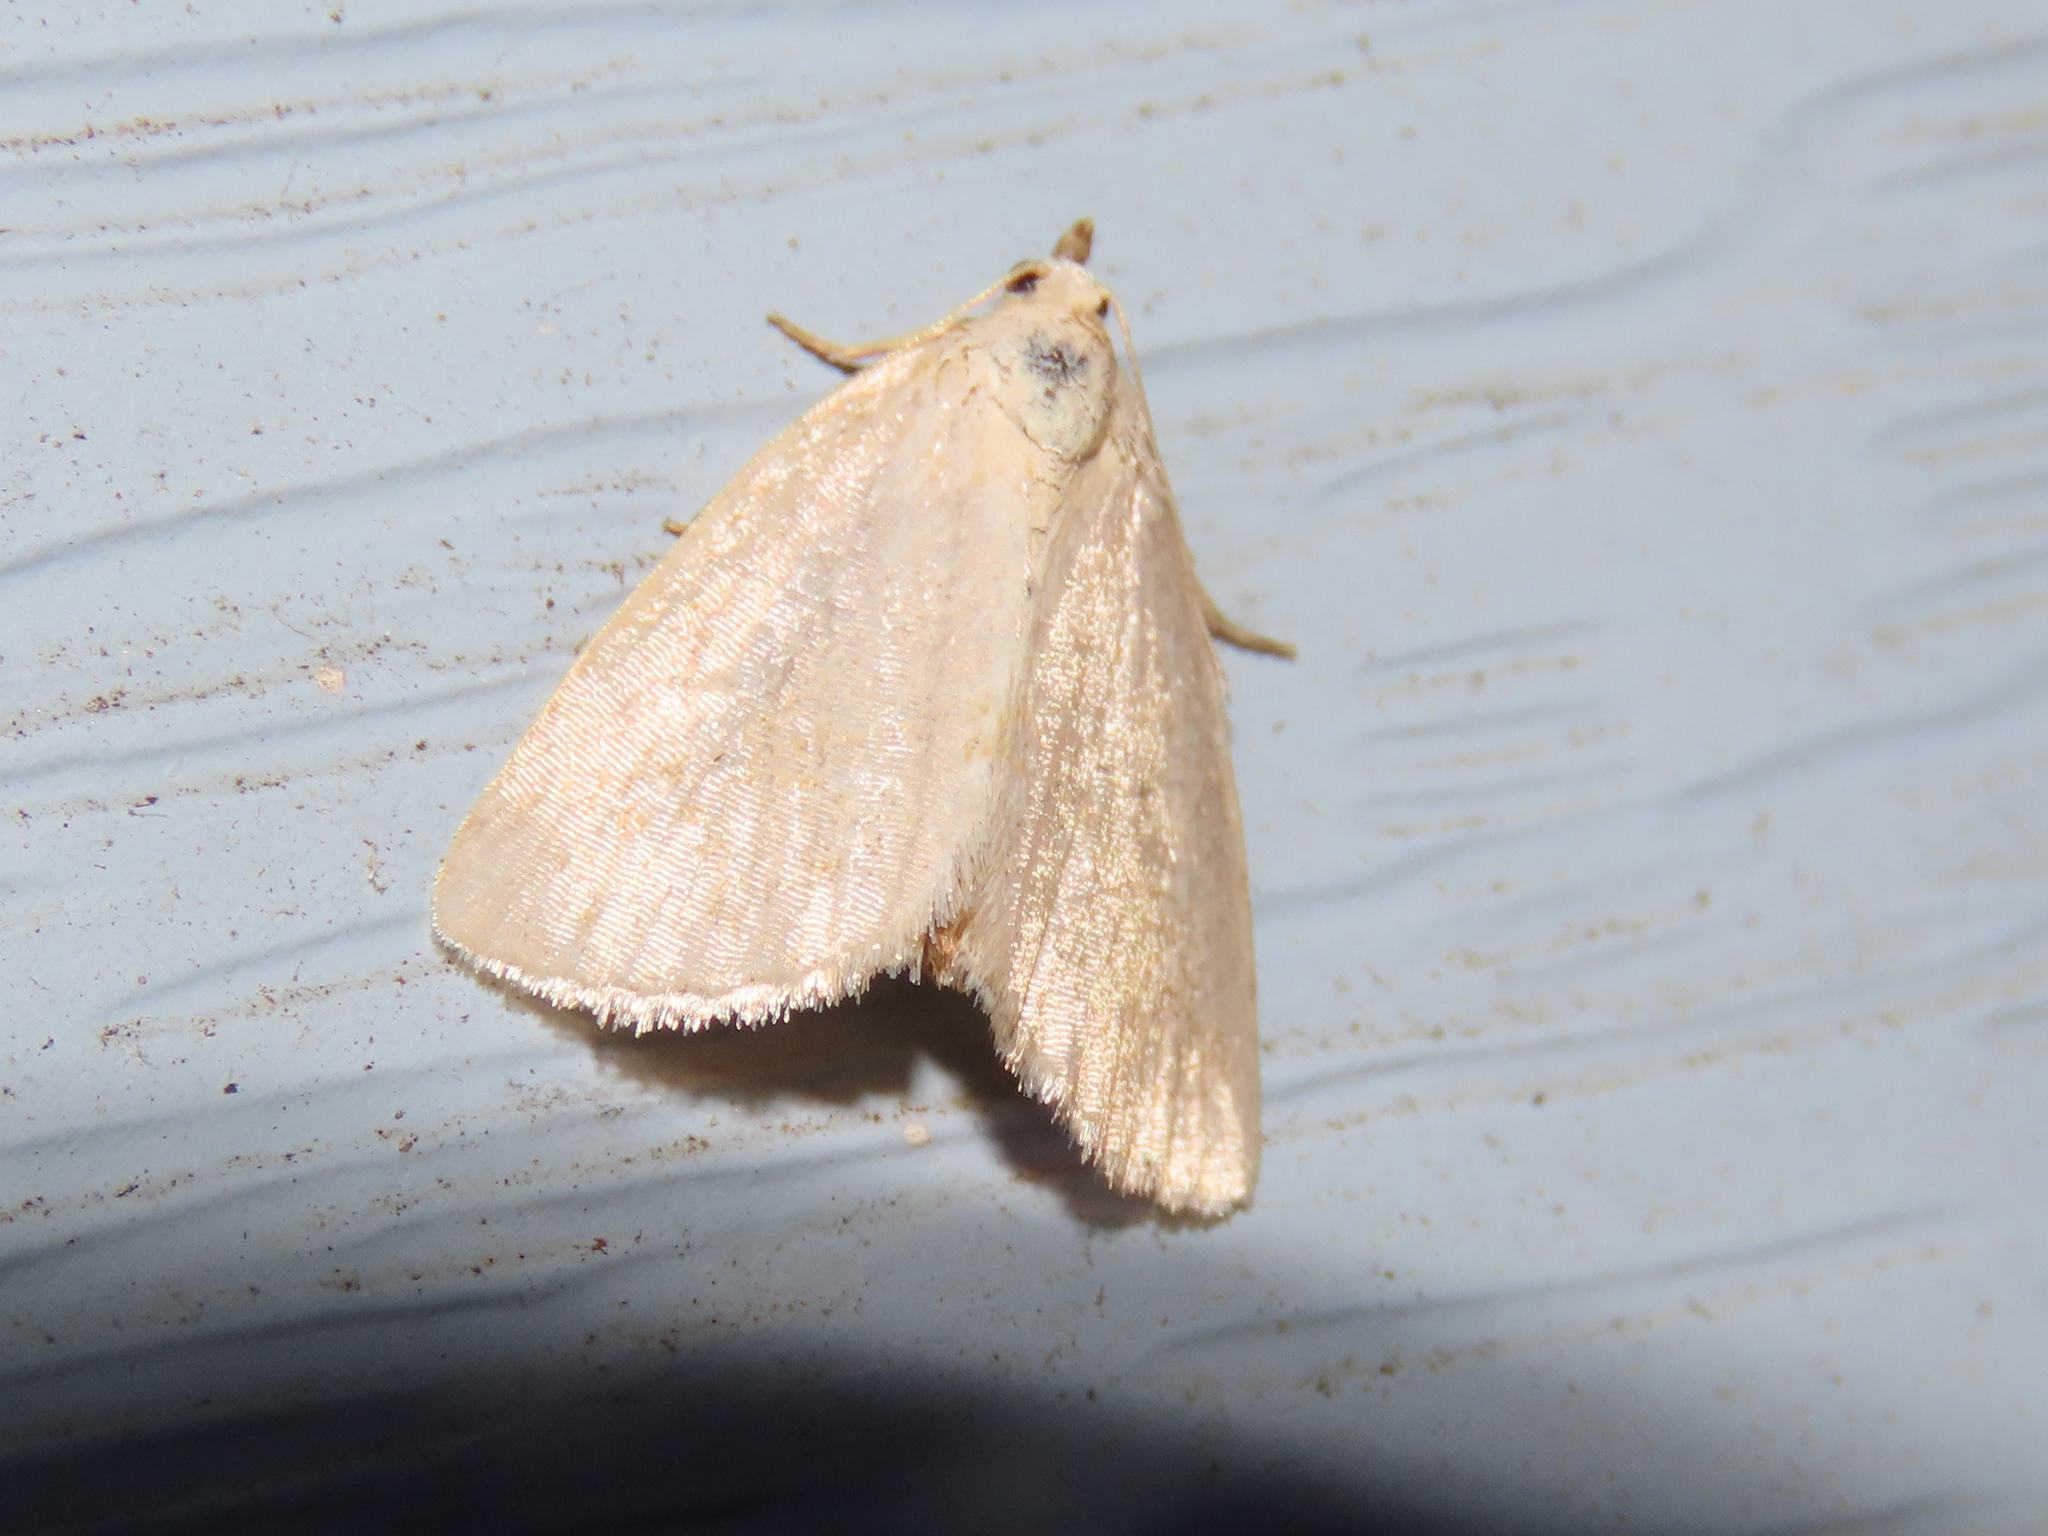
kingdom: Animalia
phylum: Arthropoda
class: Insecta
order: Lepidoptera
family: Noctuidae
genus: Protodeltote
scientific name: Protodeltote albidula
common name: Pale glyph
